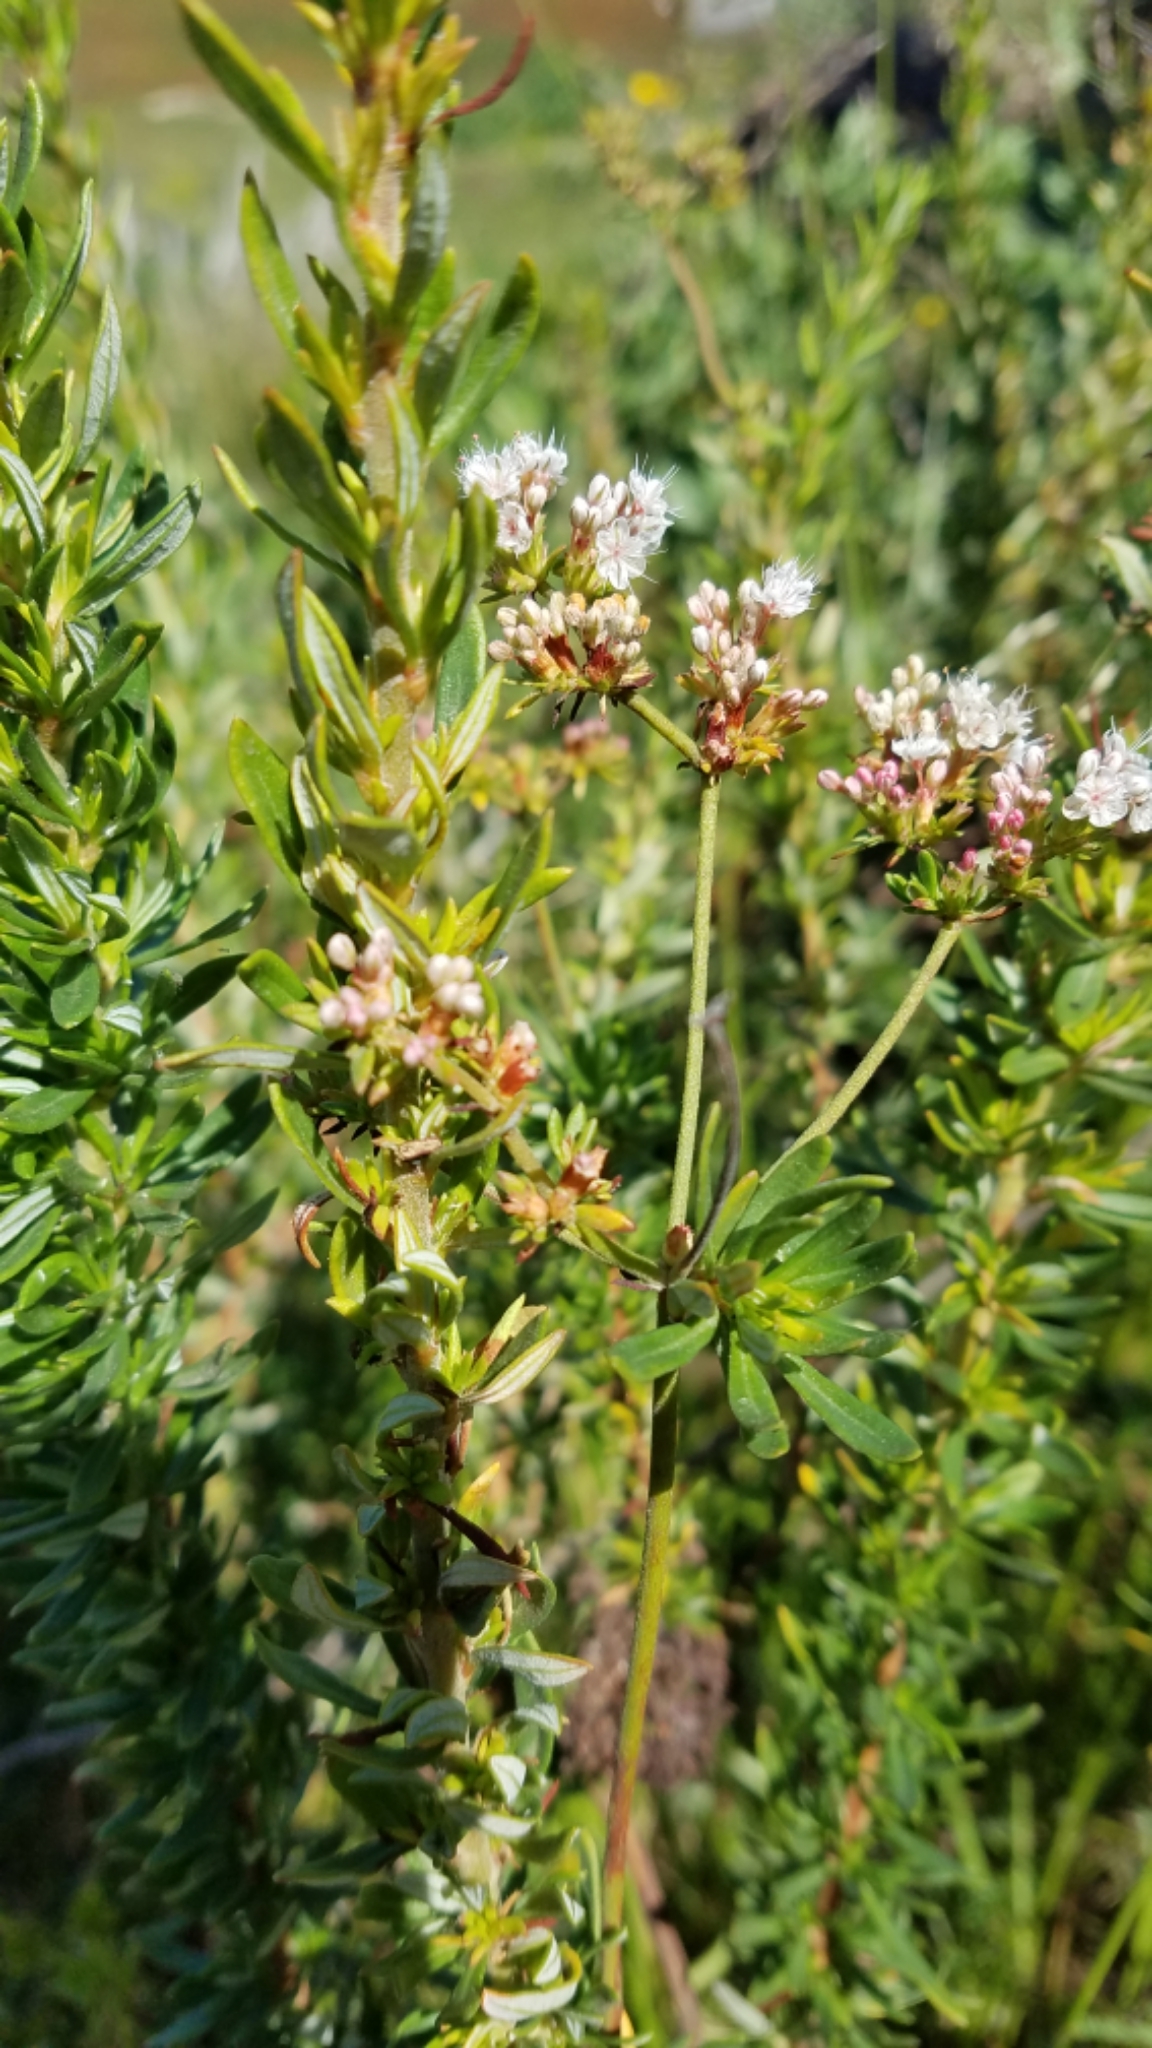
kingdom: Plantae
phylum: Tracheophyta
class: Magnoliopsida
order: Caryophyllales
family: Polygonaceae
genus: Eriogonum
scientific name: Eriogonum fasciculatum
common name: California wild buckwheat
